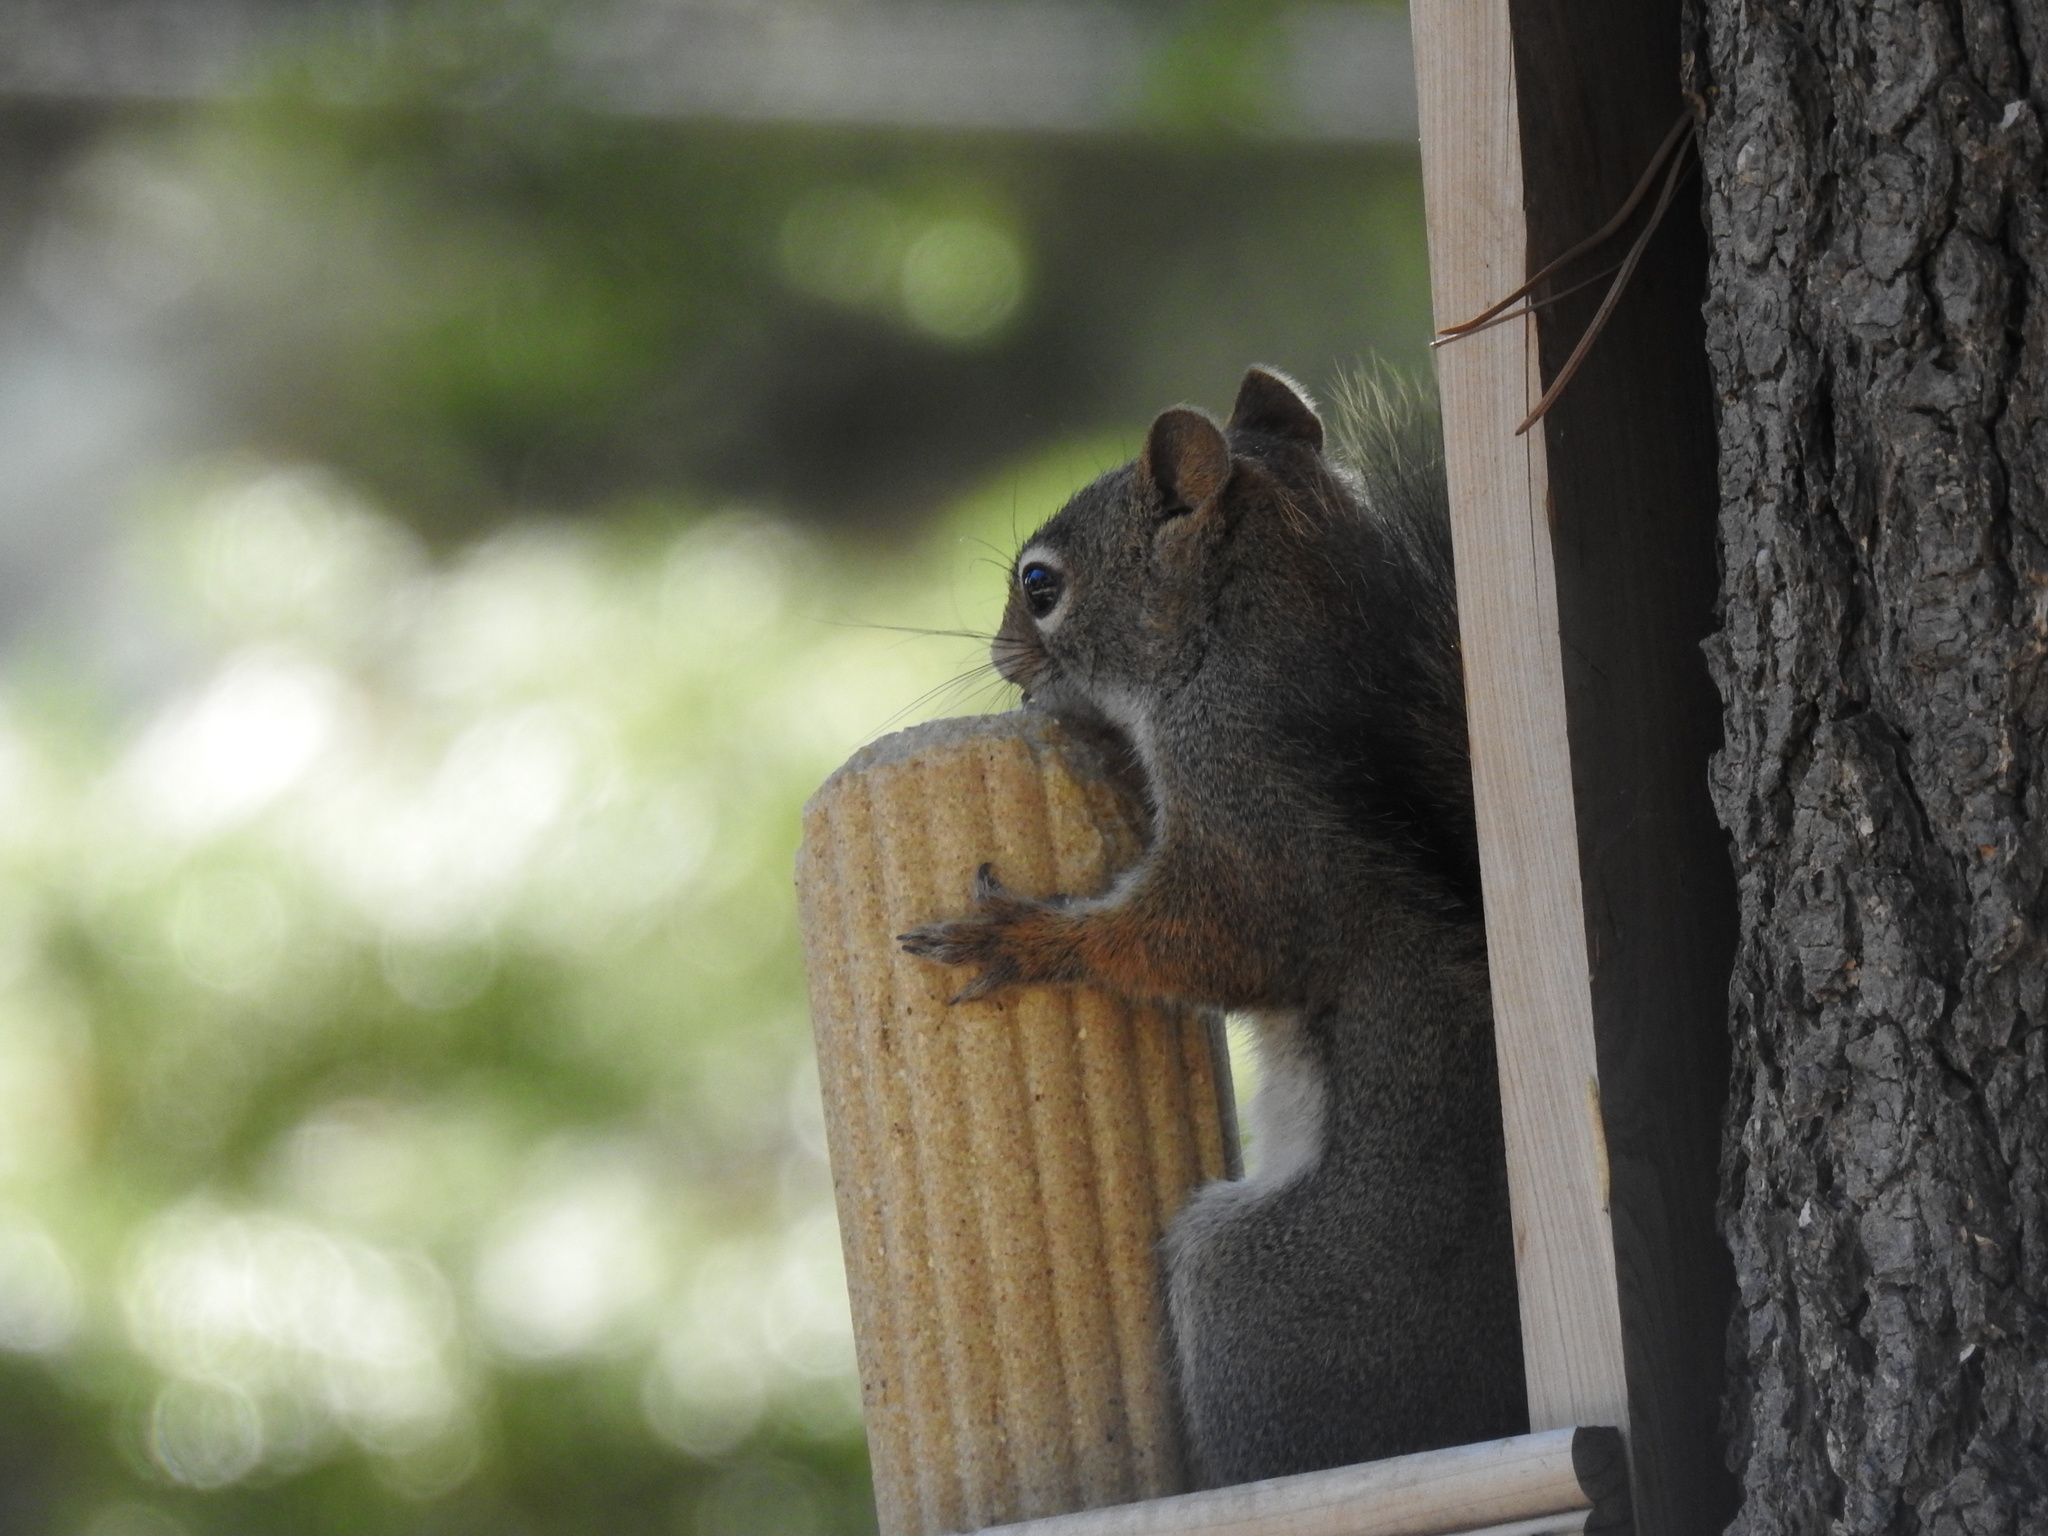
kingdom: Animalia
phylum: Chordata
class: Mammalia
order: Rodentia
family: Sciuridae
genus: Tamiasciurus
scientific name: Tamiasciurus hudsonicus
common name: Red squirrel
